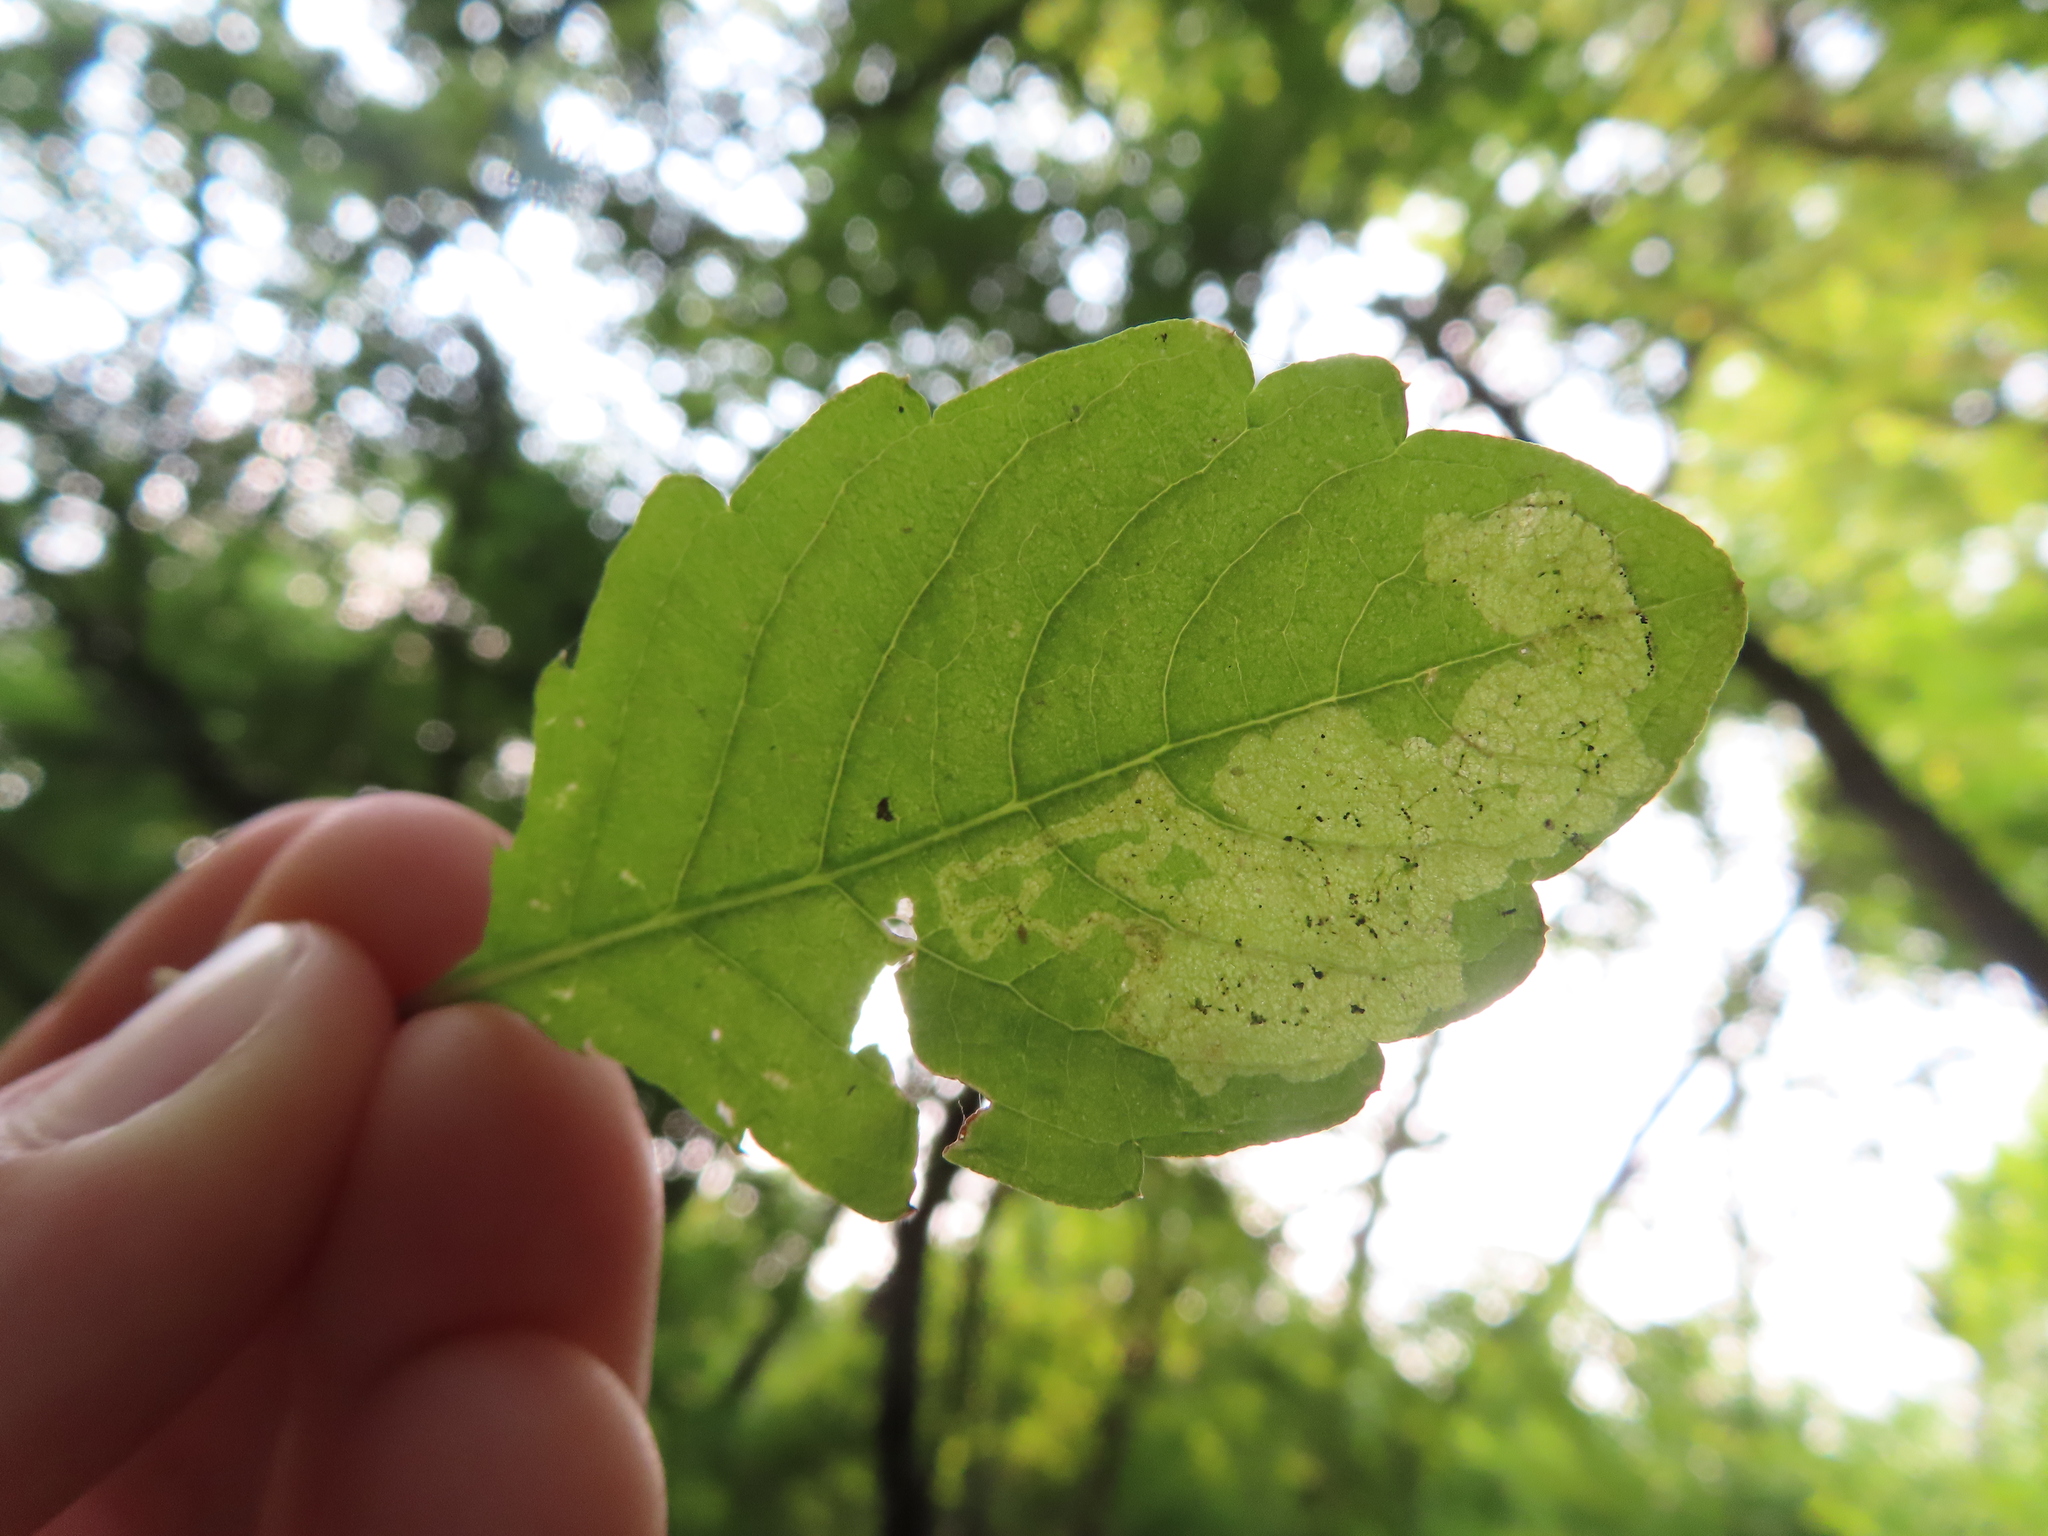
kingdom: Animalia
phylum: Arthropoda
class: Insecta
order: Diptera
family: Agromyzidae
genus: Phytoliriomyza
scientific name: Phytoliriomyza melampyga
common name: Jewelweed leaf-miner fly
